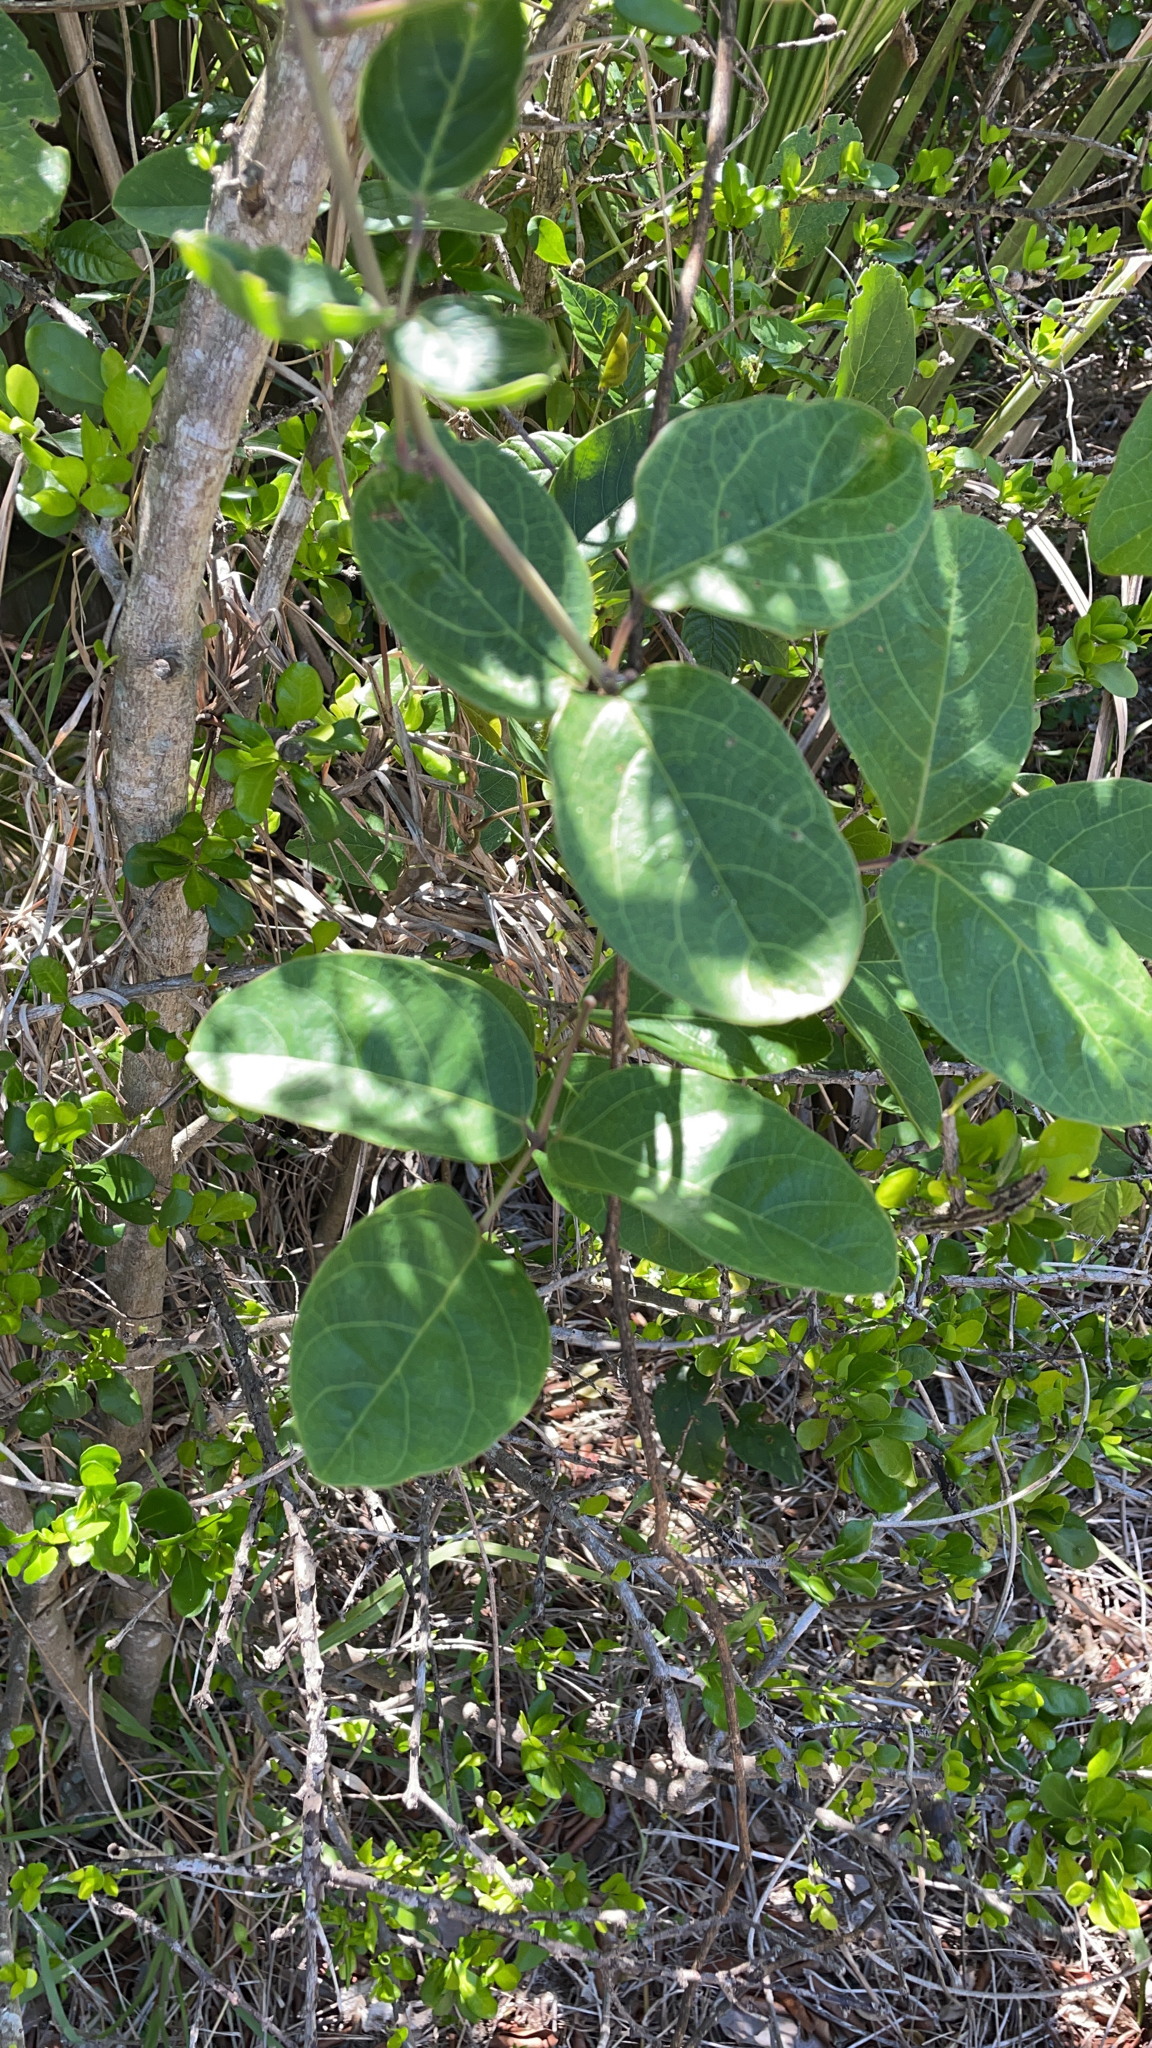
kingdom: Plantae
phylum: Tracheophyta
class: Magnoliopsida
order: Fabales
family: Fabaceae
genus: Canavalia
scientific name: Canavalia rosea
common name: Beach-bean
